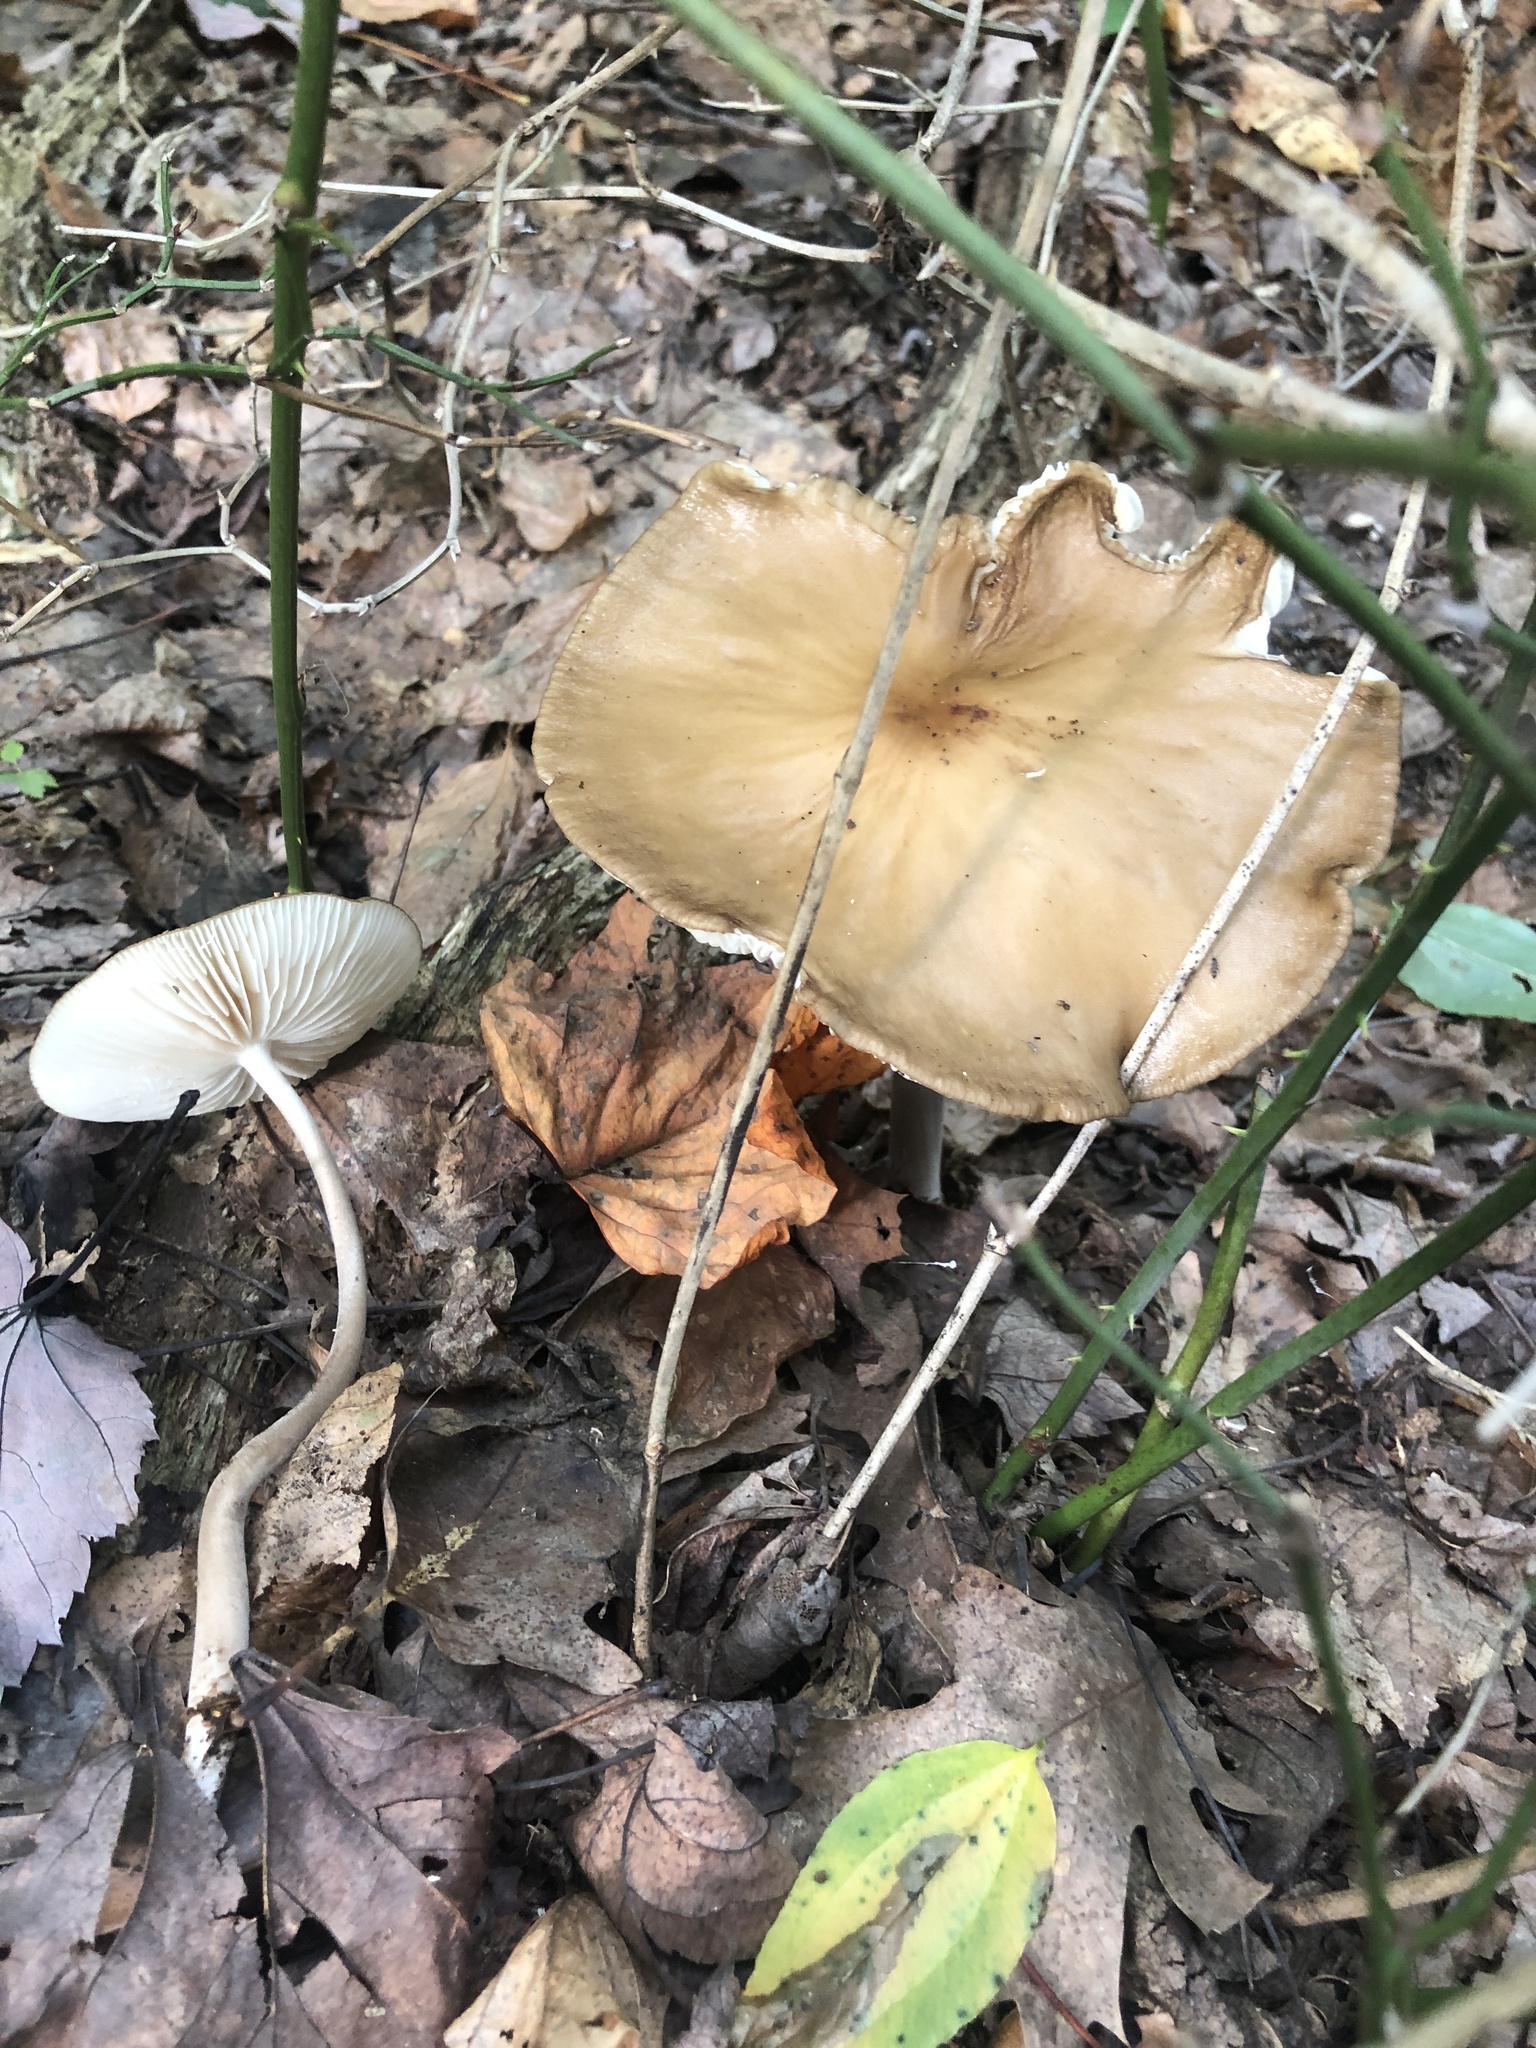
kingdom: Fungi
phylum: Basidiomycota
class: Agaricomycetes
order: Agaricales
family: Physalacriaceae
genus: Hymenopellis
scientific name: Hymenopellis furfuracea
